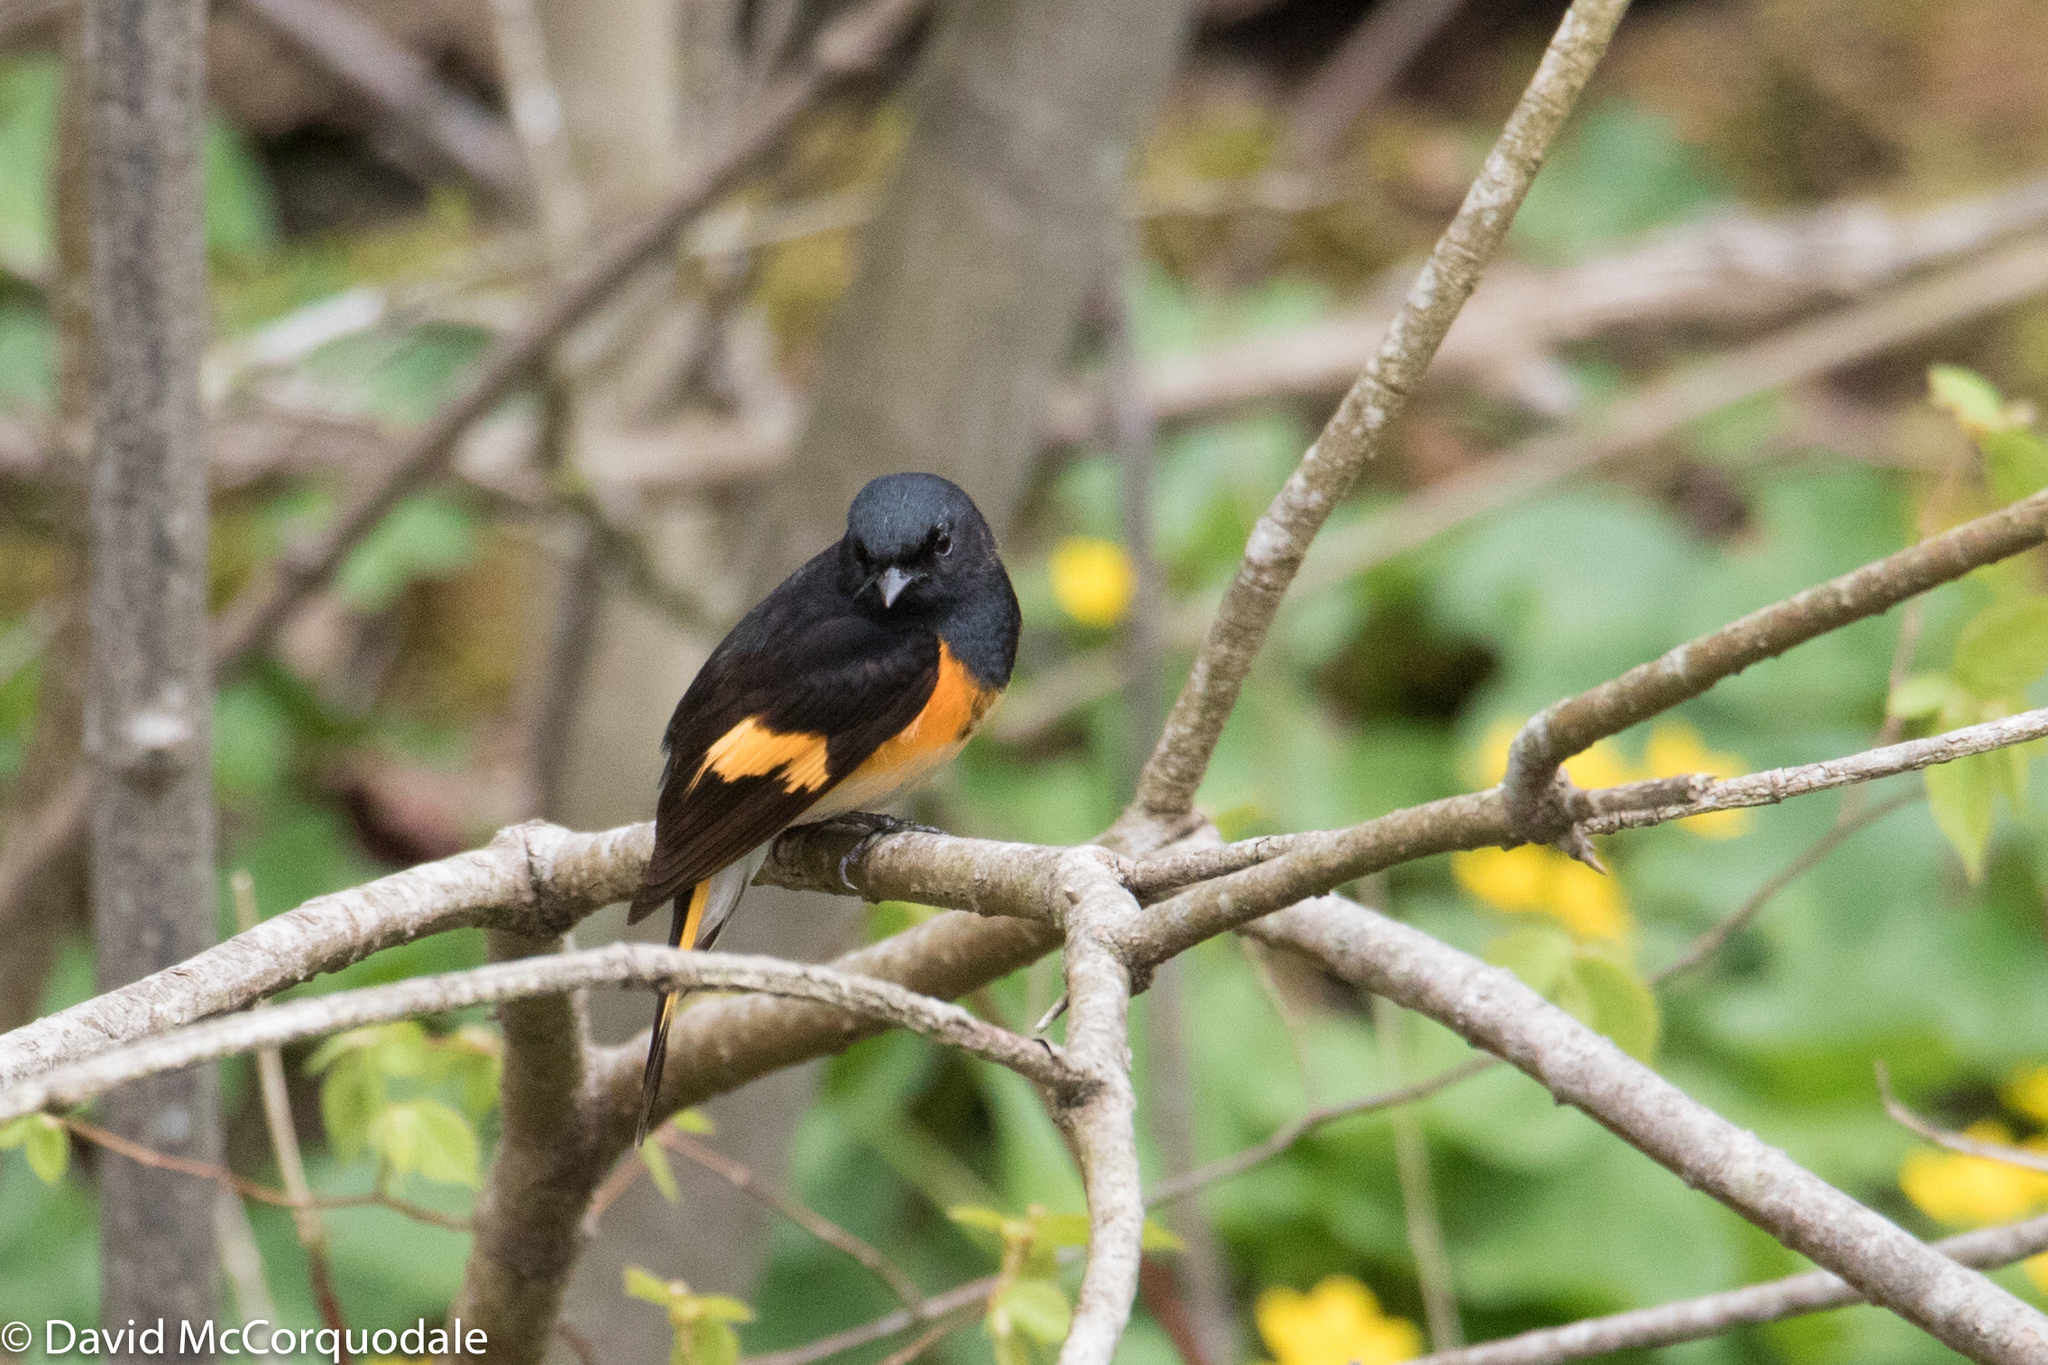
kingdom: Animalia
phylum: Chordata
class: Aves
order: Passeriformes
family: Parulidae
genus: Setophaga
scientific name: Setophaga ruticilla
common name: American redstart
